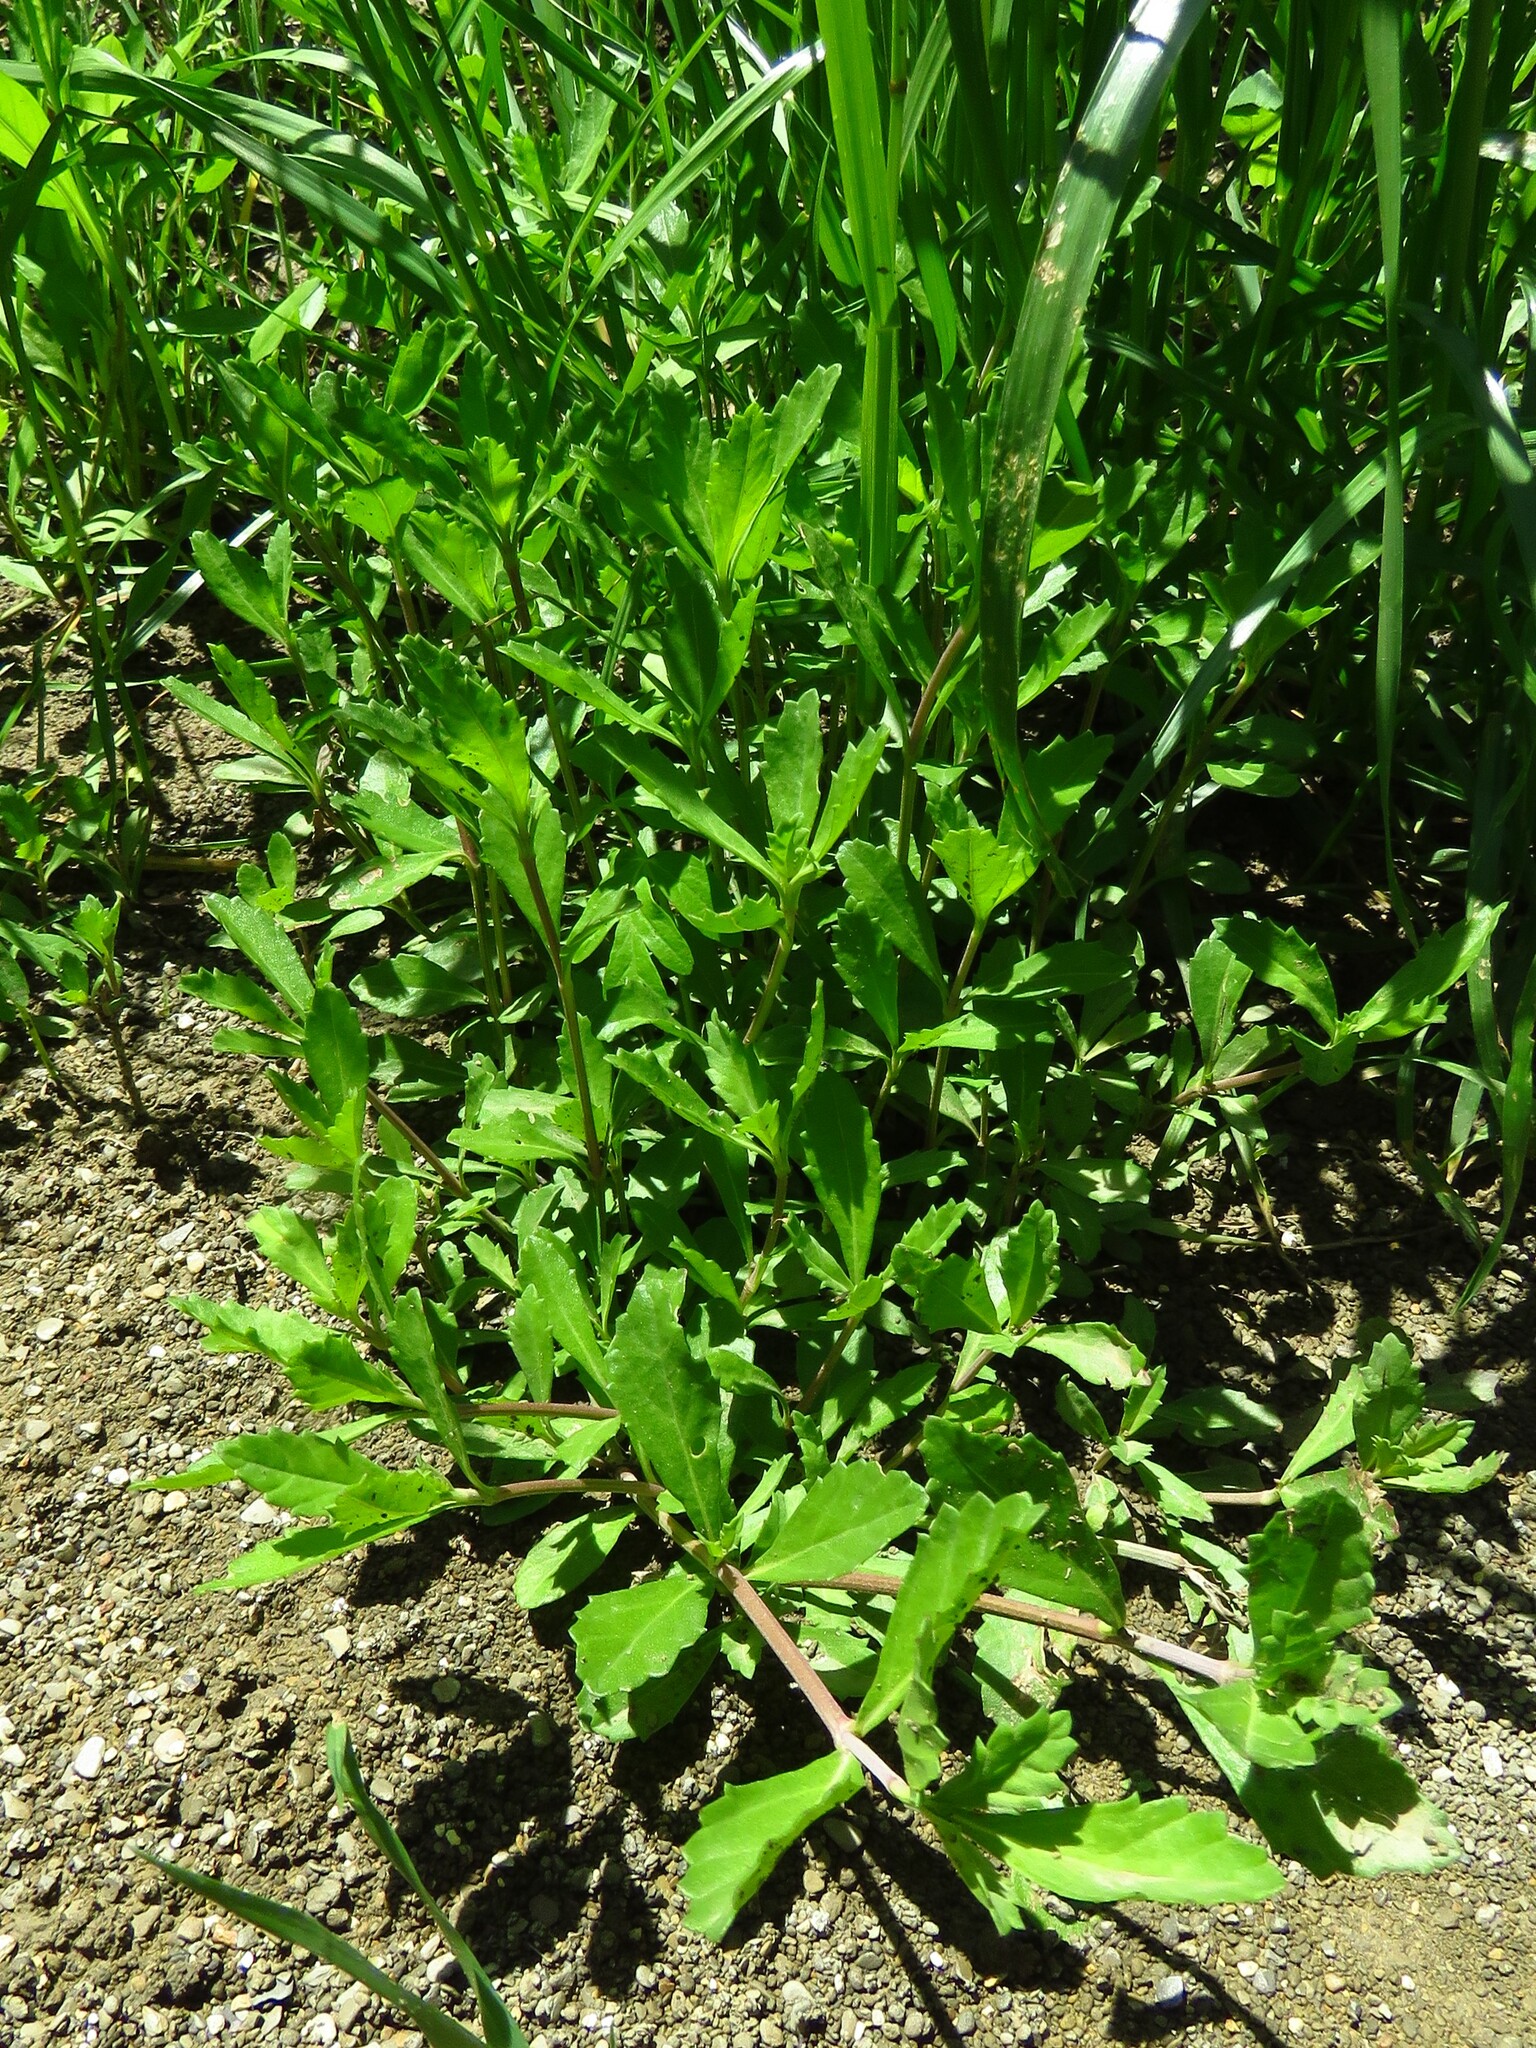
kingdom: Plantae
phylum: Tracheophyta
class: Magnoliopsida
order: Lamiales
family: Verbenaceae
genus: Phyla
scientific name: Phyla nodiflora
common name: Frogfruit
